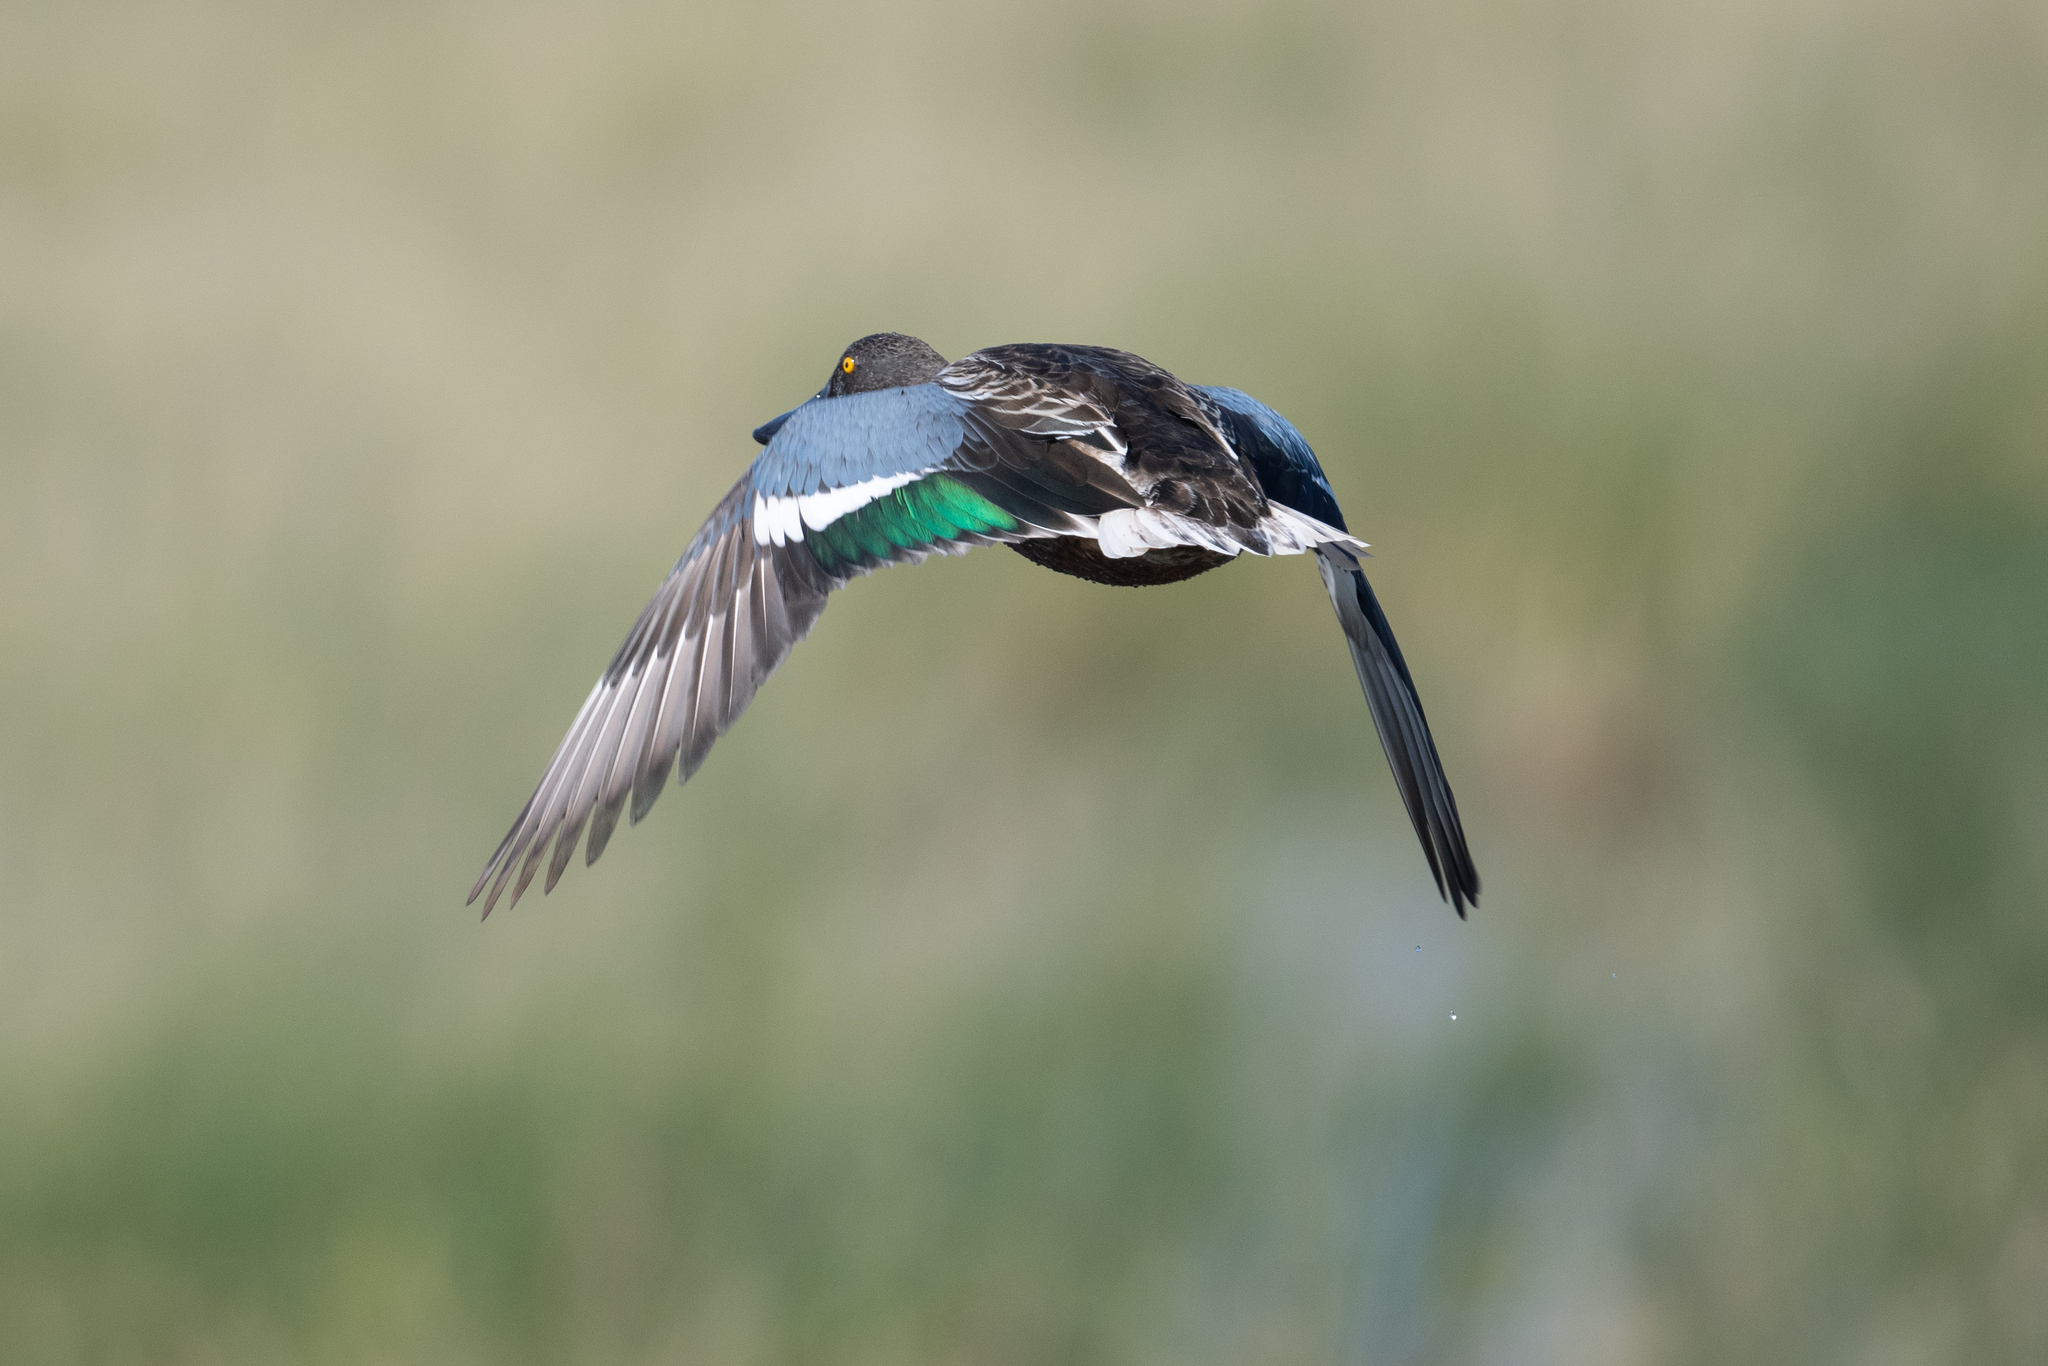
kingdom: Animalia
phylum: Chordata
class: Aves
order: Anseriformes
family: Anatidae
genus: Spatula
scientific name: Spatula clypeata
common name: Northern shoveler
